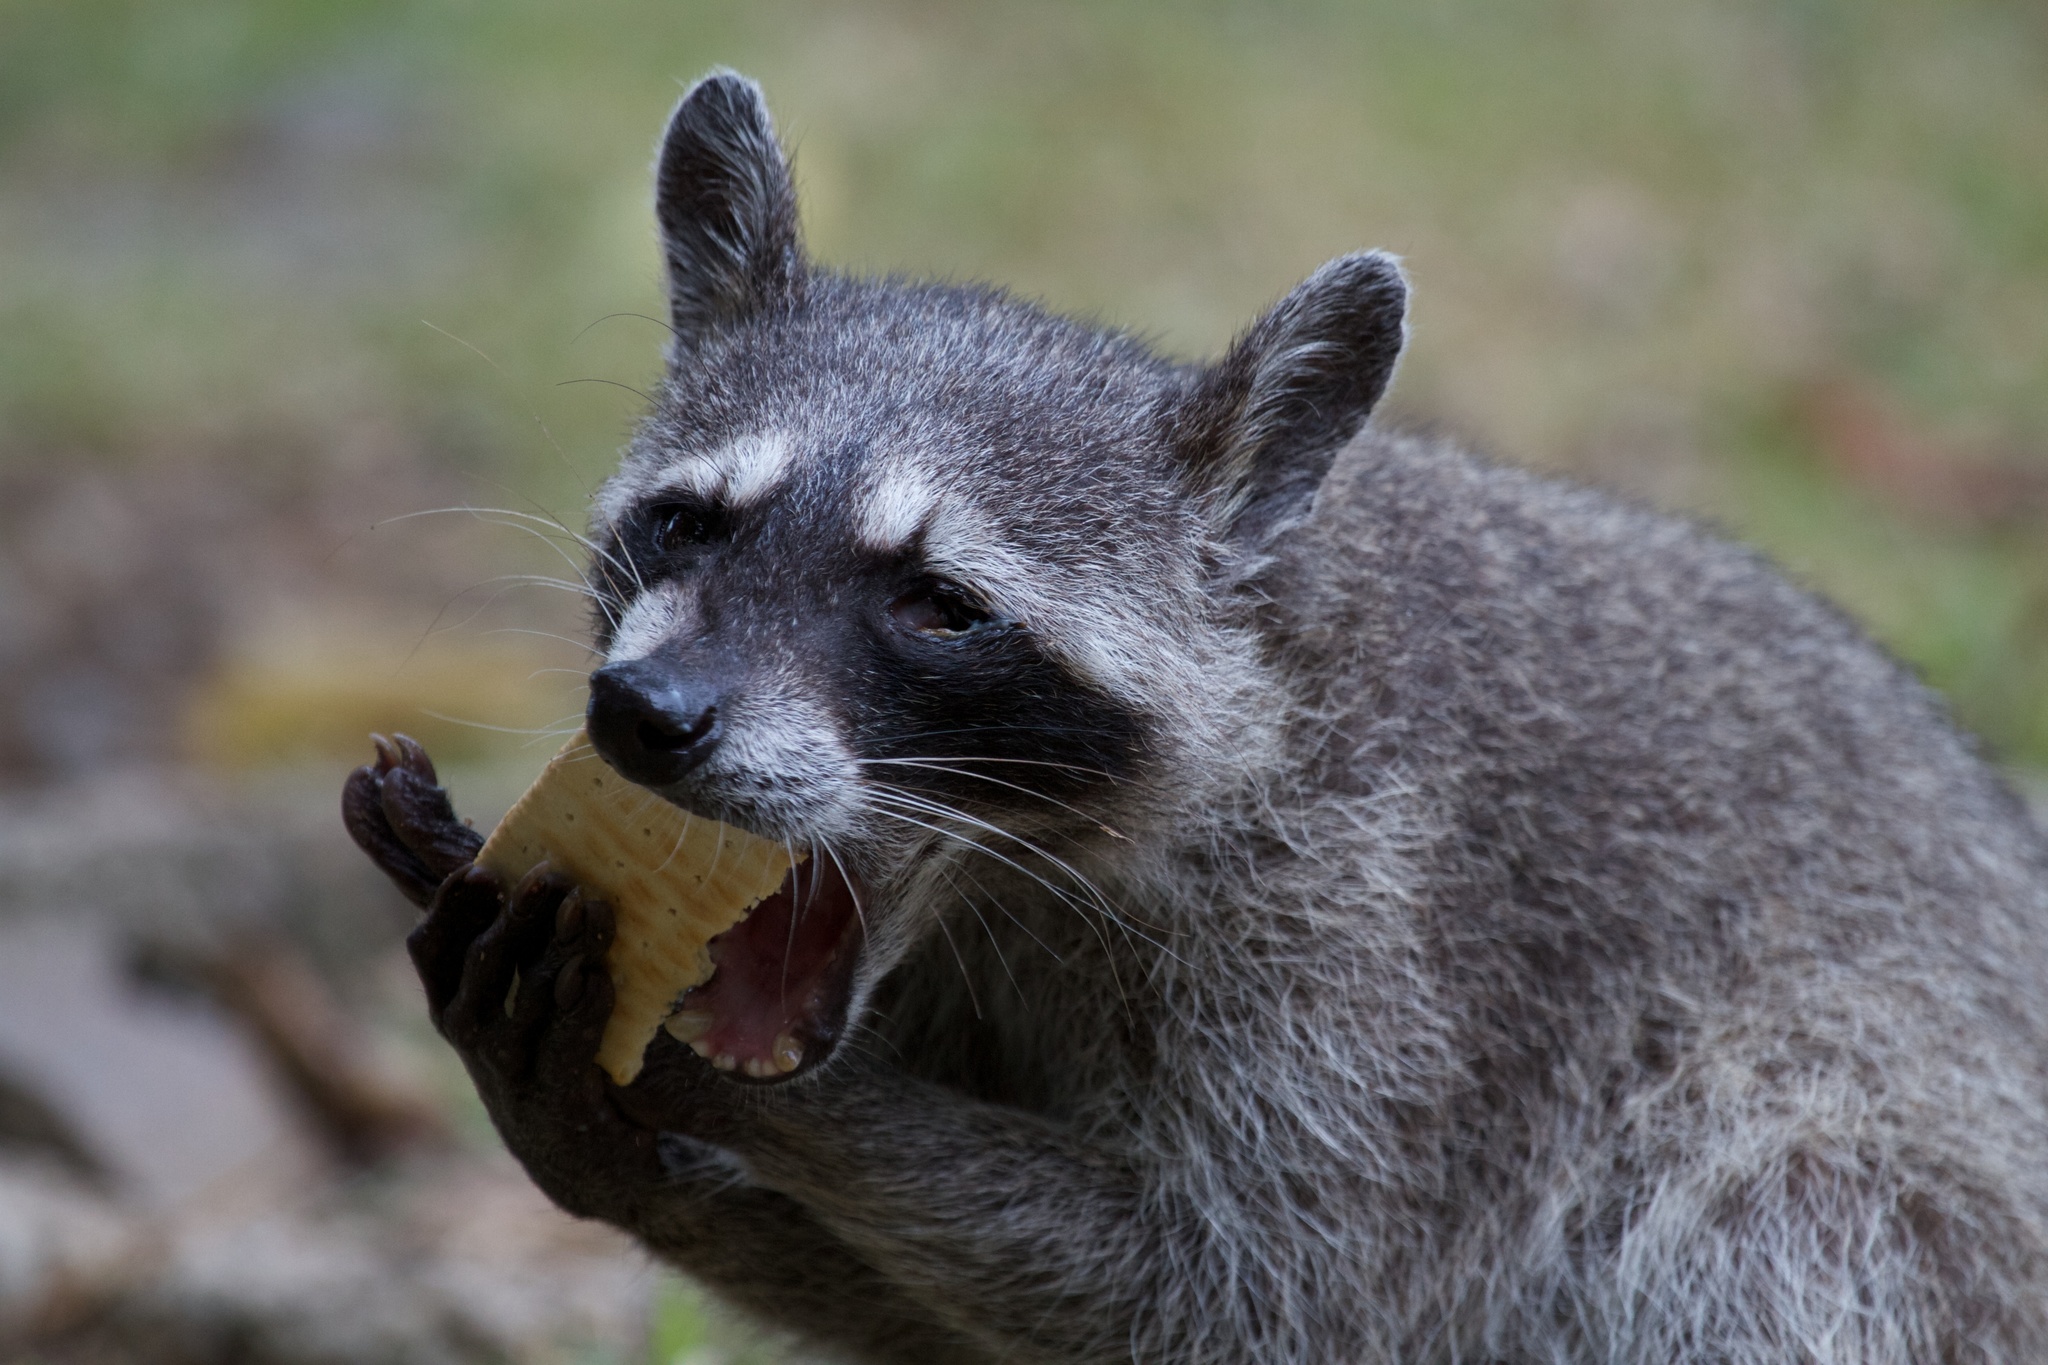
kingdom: Animalia
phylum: Chordata
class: Mammalia
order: Carnivora
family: Procyonidae
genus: Procyon
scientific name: Procyon lotor
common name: Raccoon
